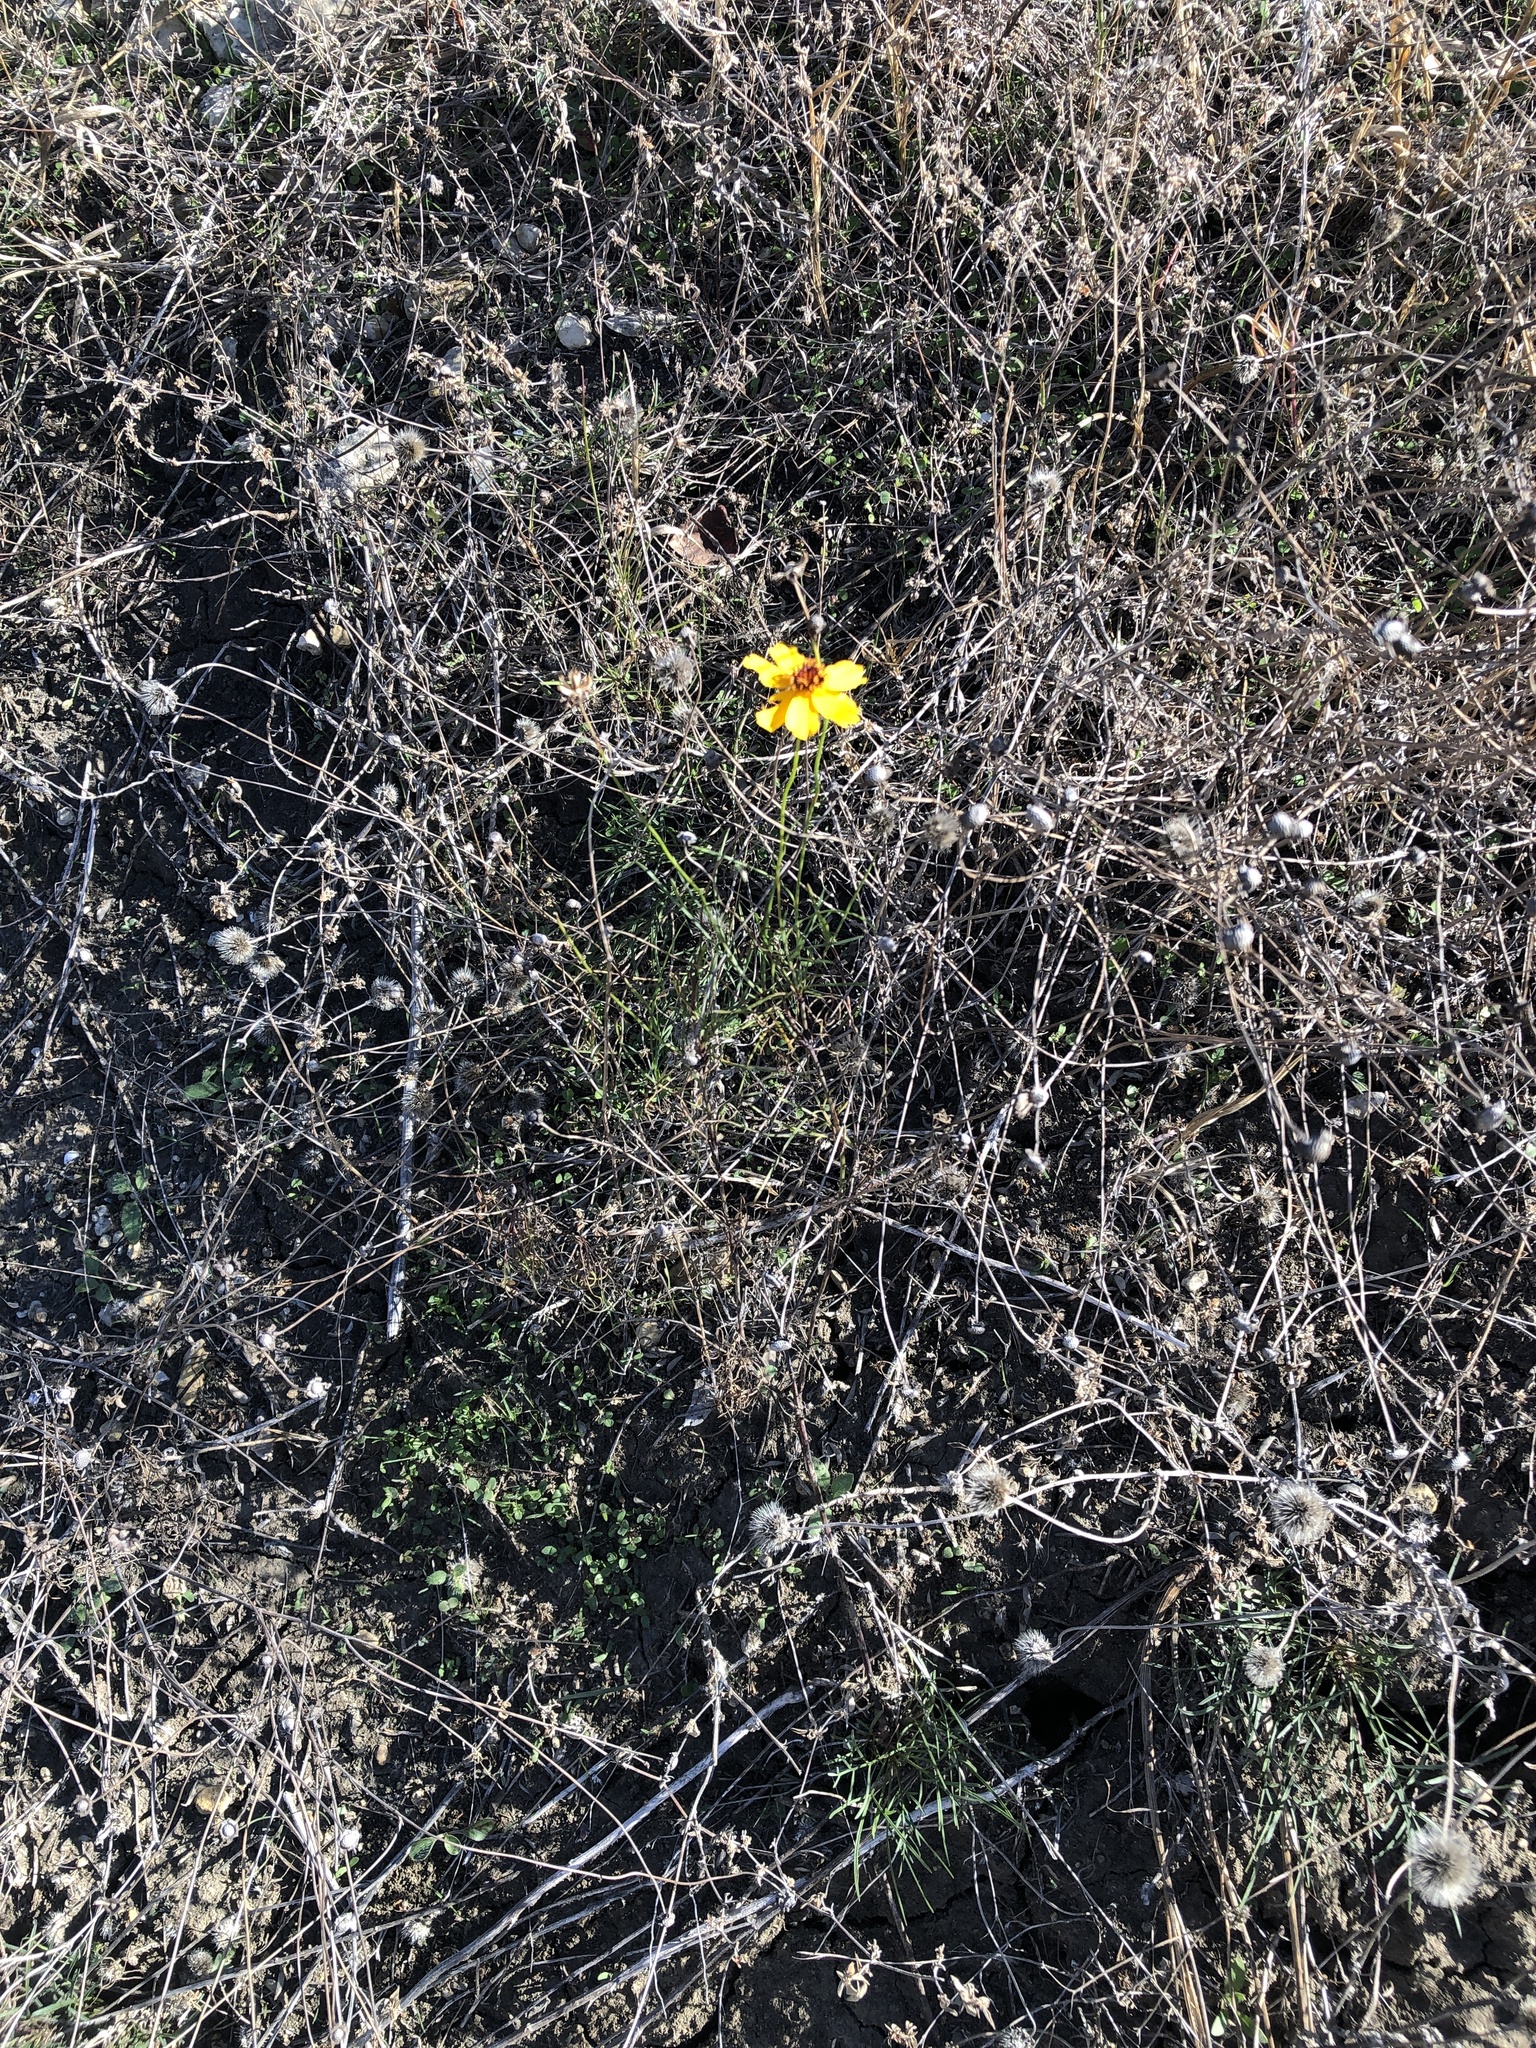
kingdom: Plantae
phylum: Tracheophyta
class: Magnoliopsida
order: Asterales
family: Asteraceae
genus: Thelesperma
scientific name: Thelesperma filifolium
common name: Stiff greenthread
